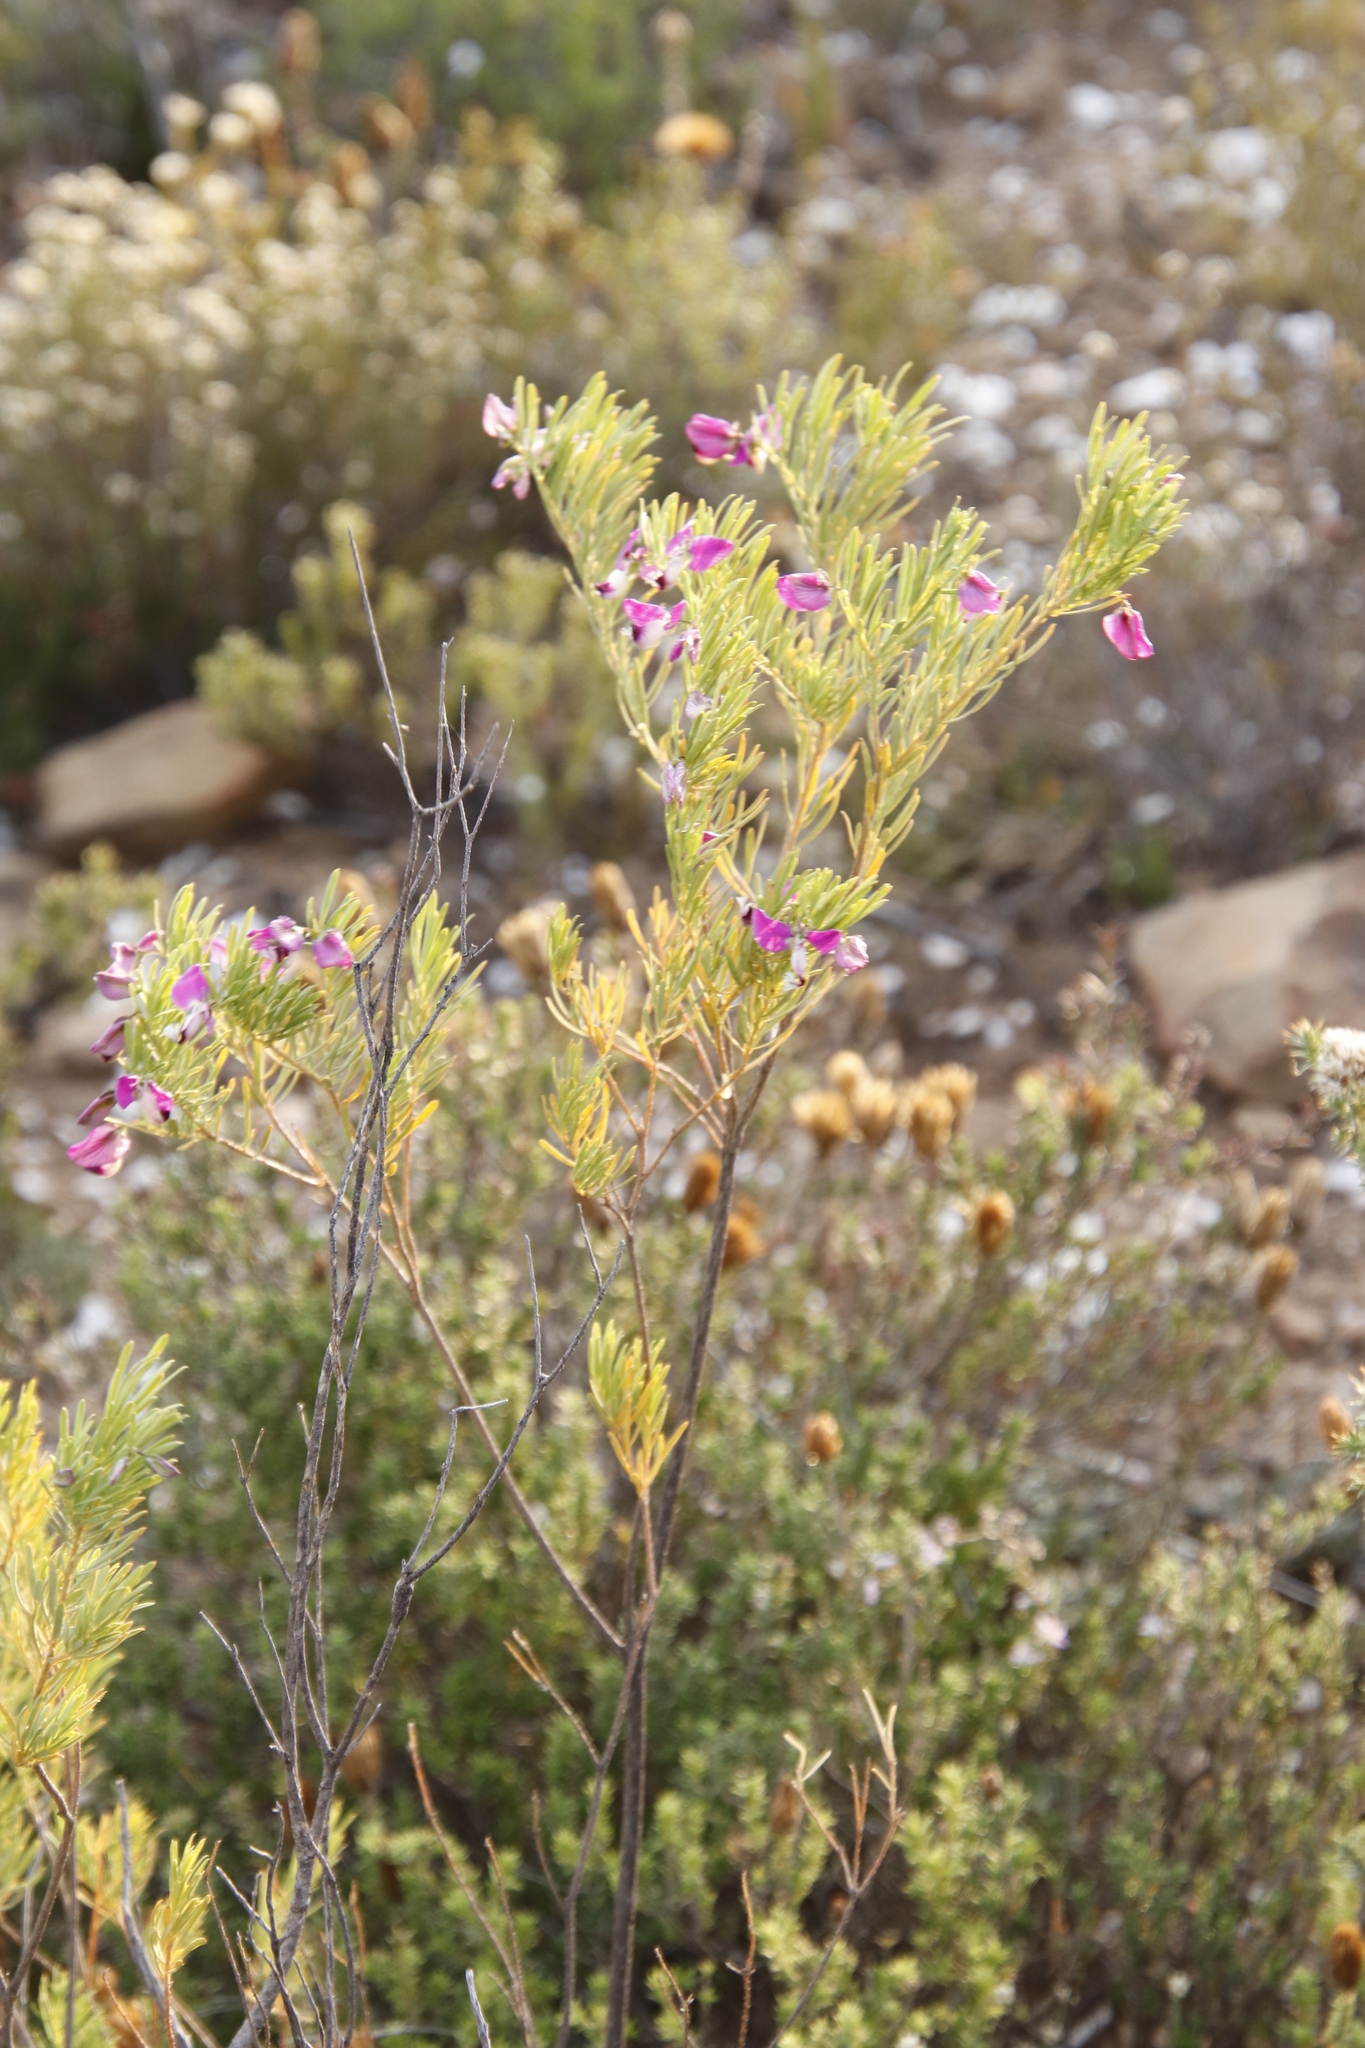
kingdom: Plantae
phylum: Tracheophyta
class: Magnoliopsida
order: Fabales
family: Polygalaceae
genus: Polygala
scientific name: Polygala myrtifolia
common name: Myrtle-leaf milkwort
